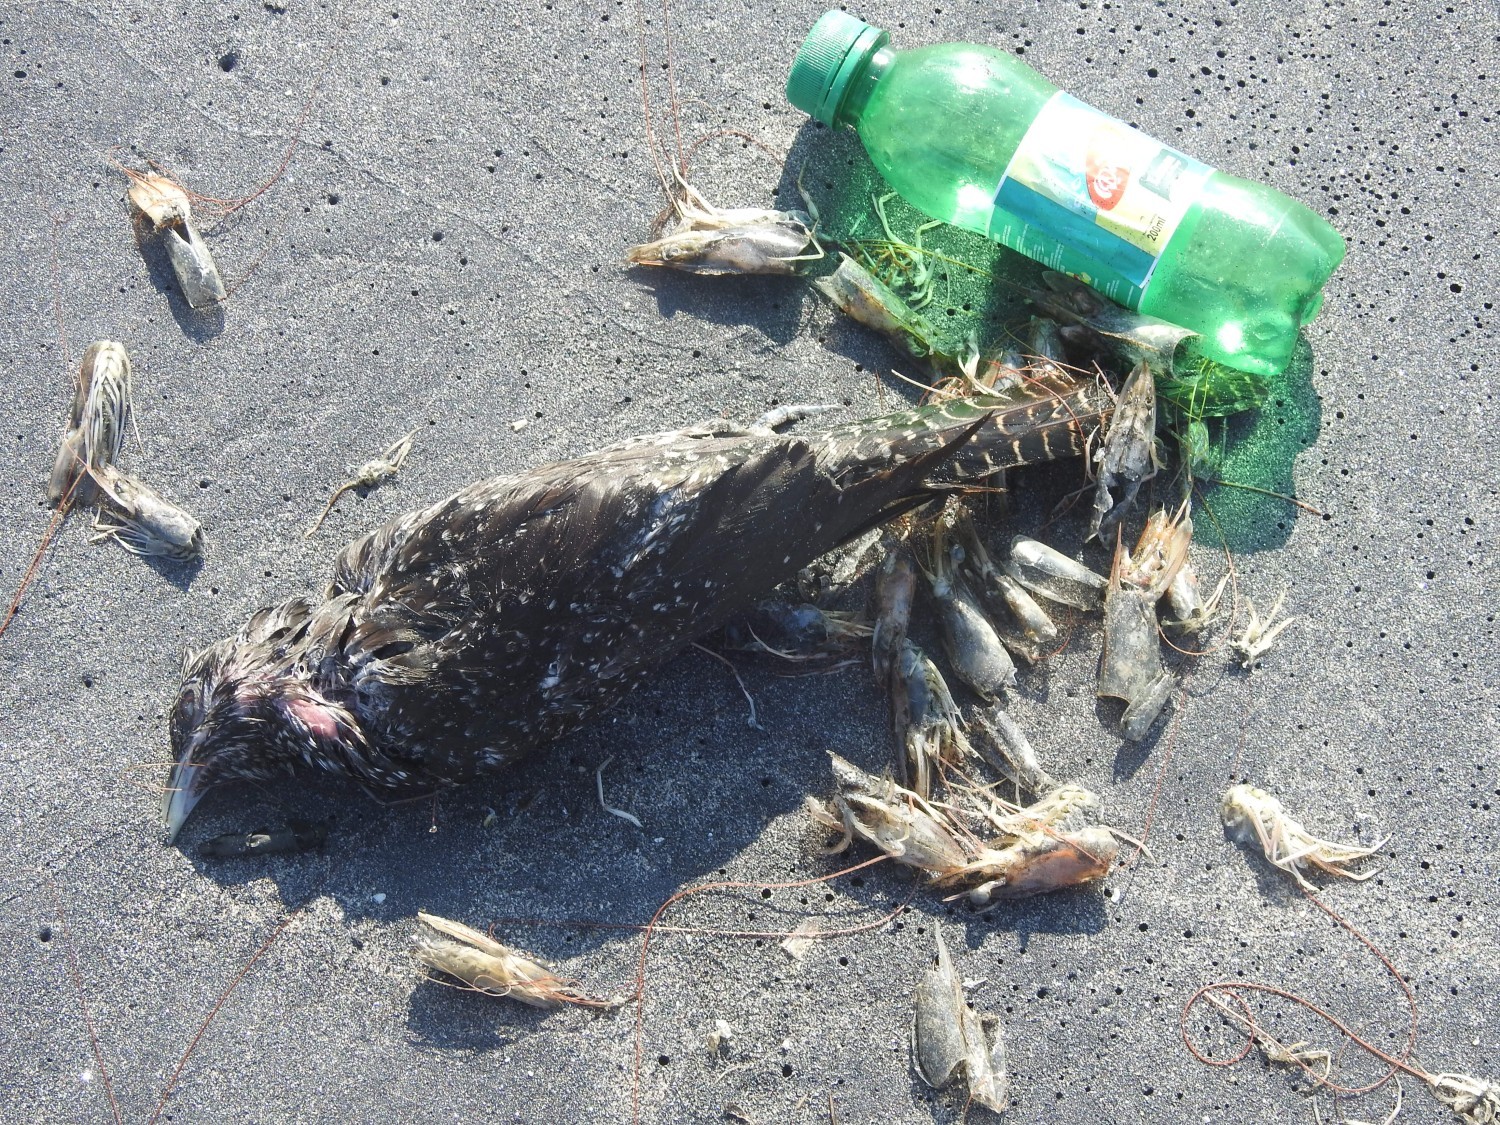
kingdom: Animalia
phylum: Chordata
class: Aves
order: Cuculiformes
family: Cuculidae
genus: Eudynamys
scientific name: Eudynamys scolopaceus
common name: Asian koel
